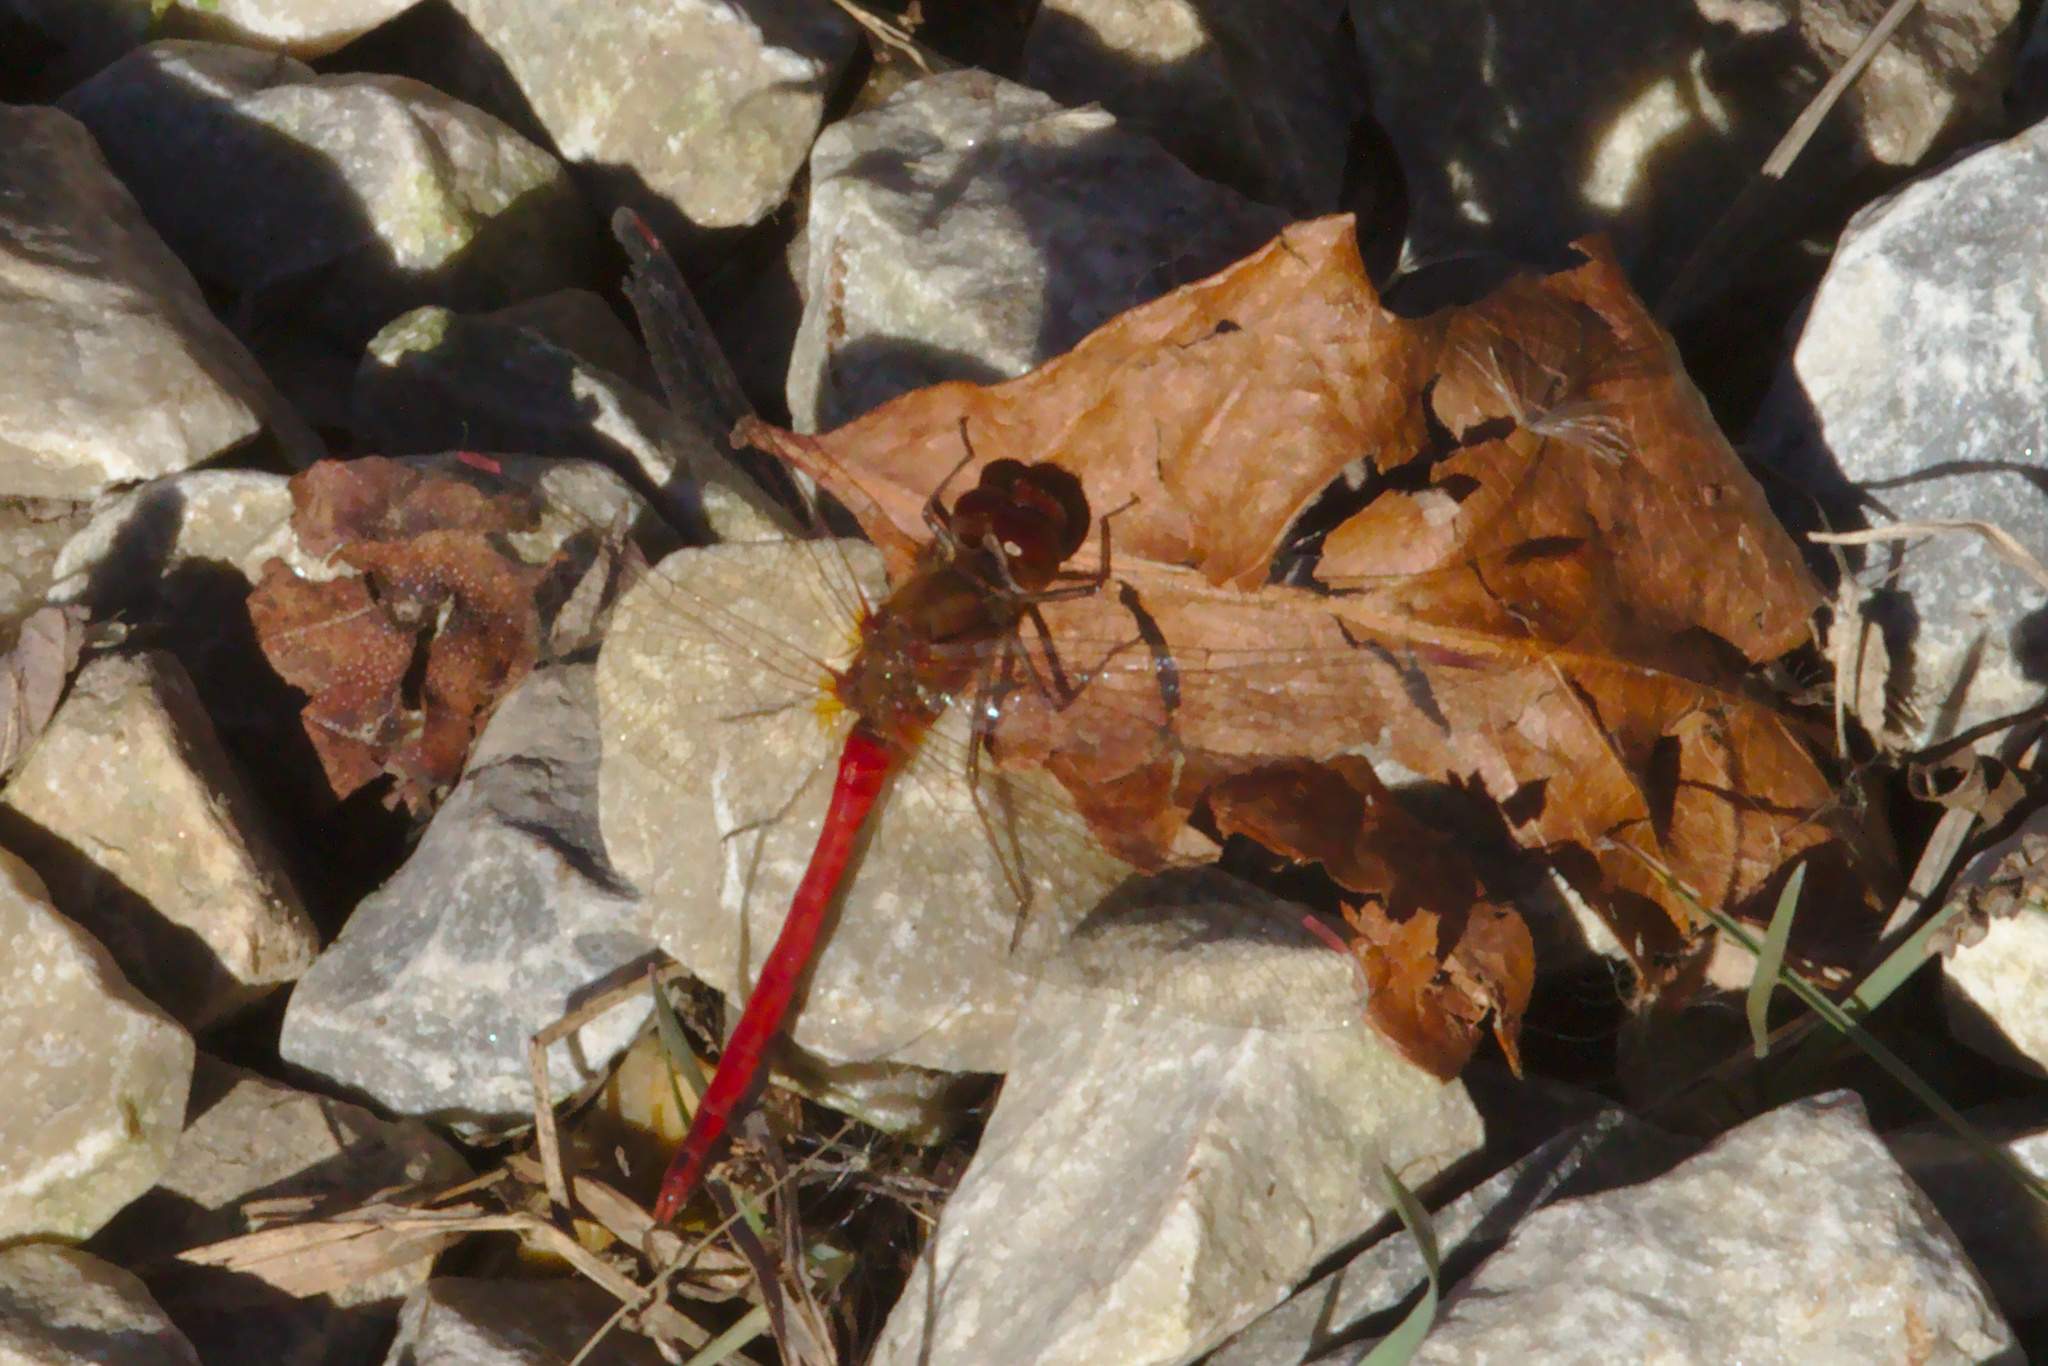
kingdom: Animalia
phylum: Arthropoda
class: Insecta
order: Odonata
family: Libellulidae
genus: Sympetrum
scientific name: Sympetrum vicinum
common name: Autumn meadowhawk
